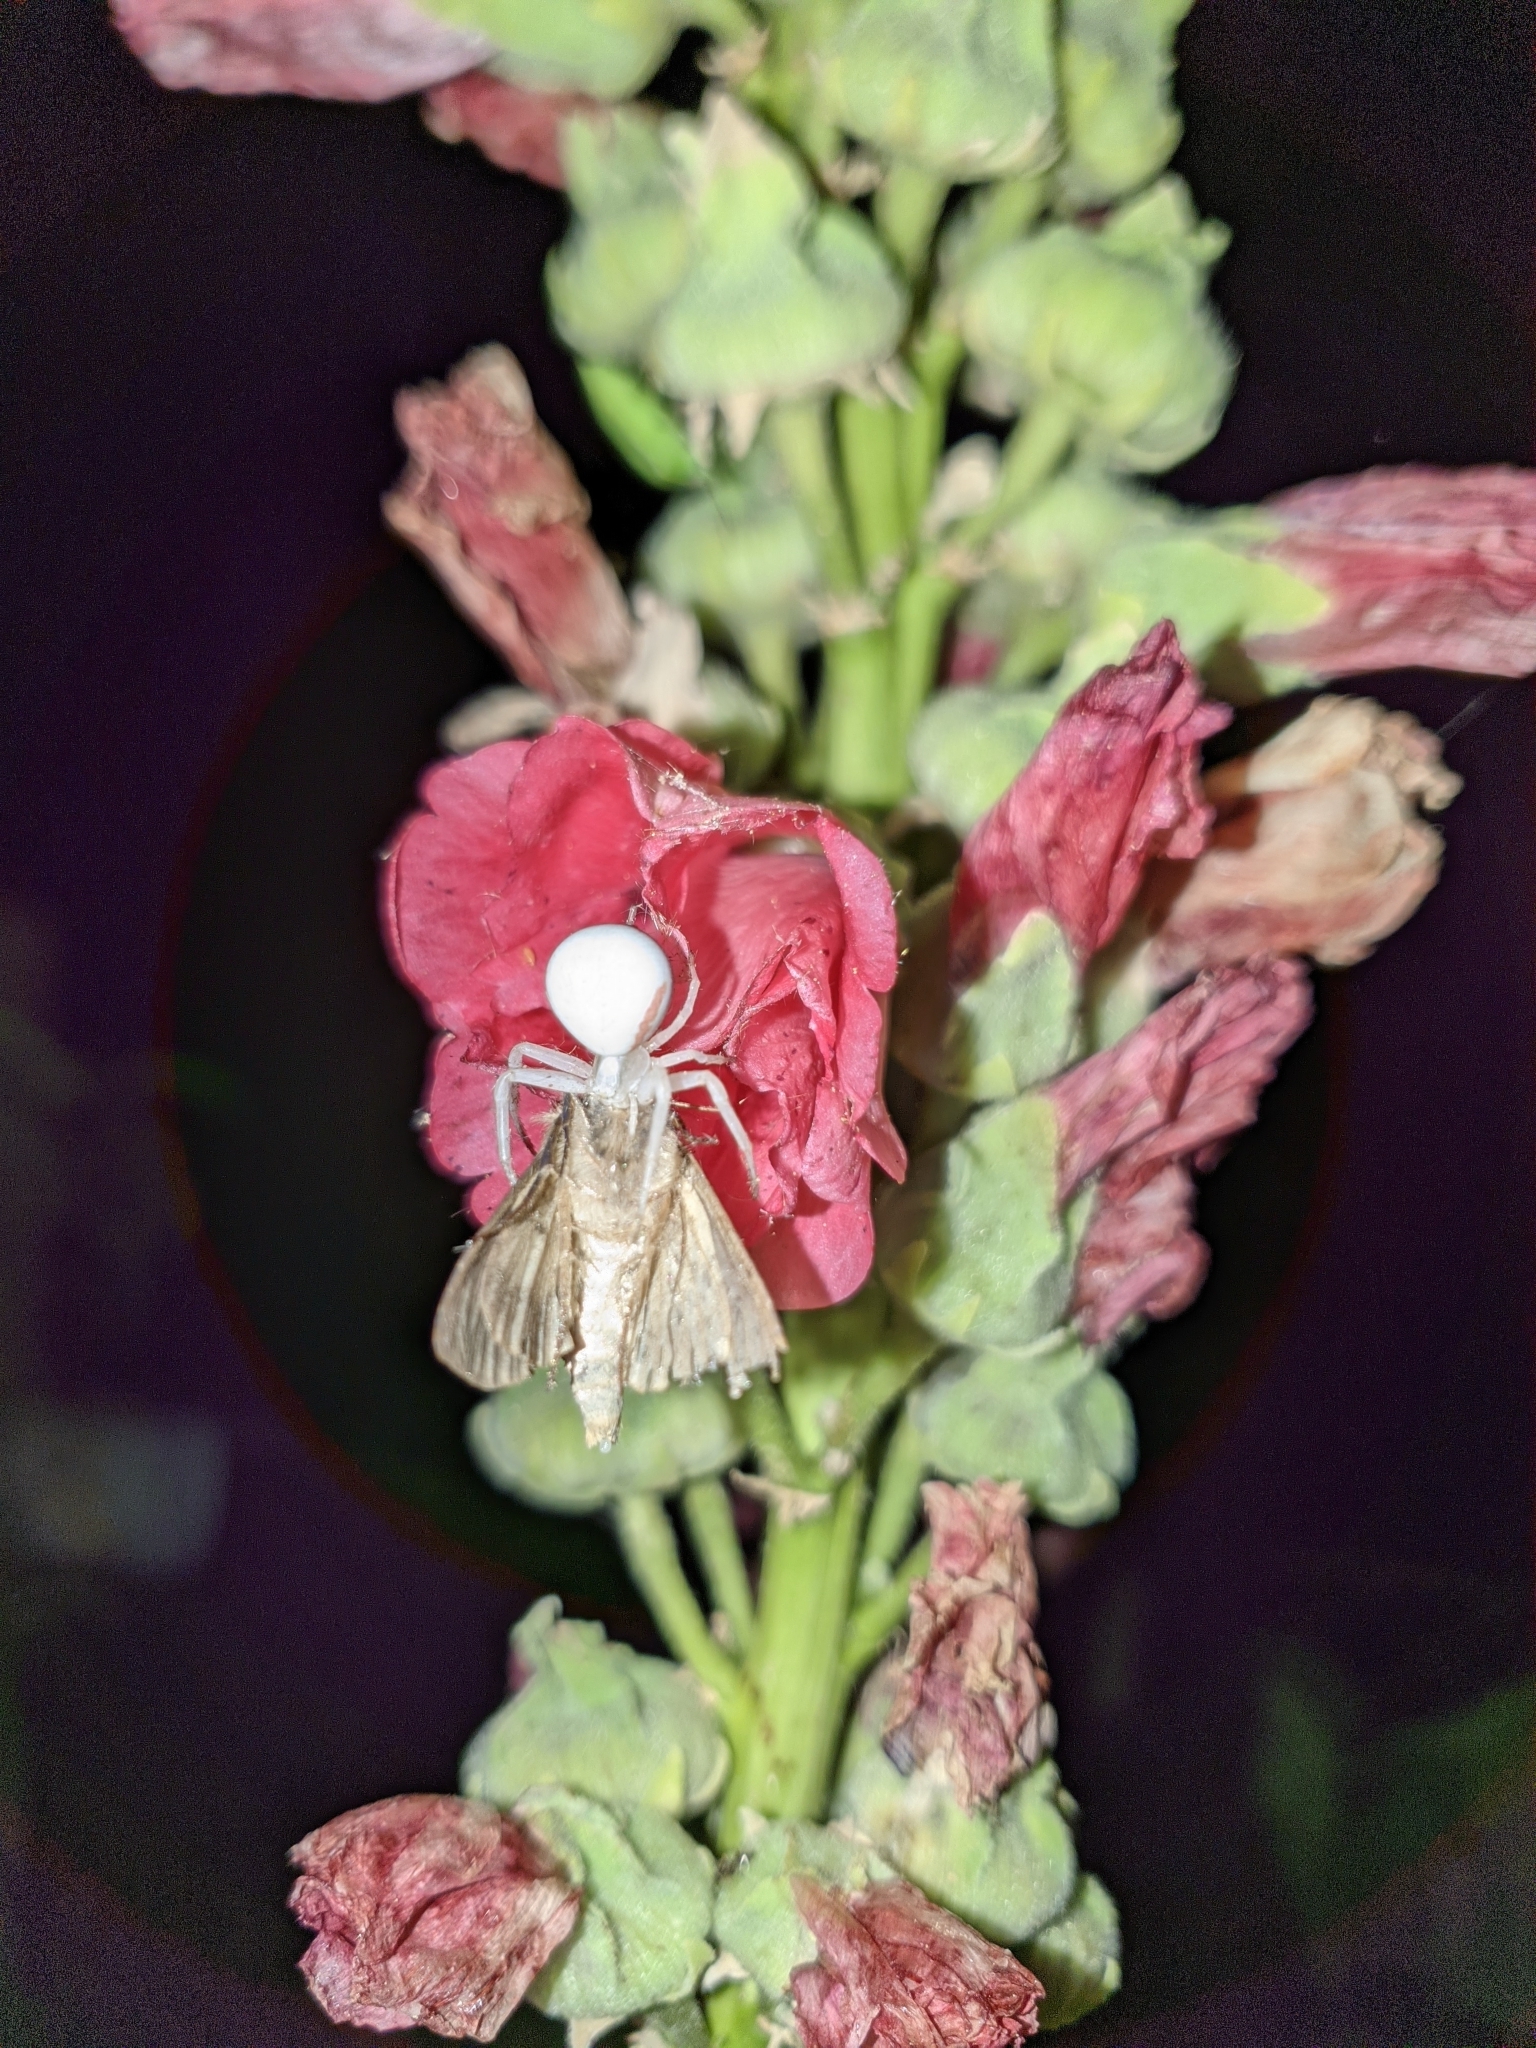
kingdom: Animalia
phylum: Arthropoda
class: Arachnida
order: Araneae
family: Thomisidae
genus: Misumena
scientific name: Misumena vatia
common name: Goldenrod crab spider
